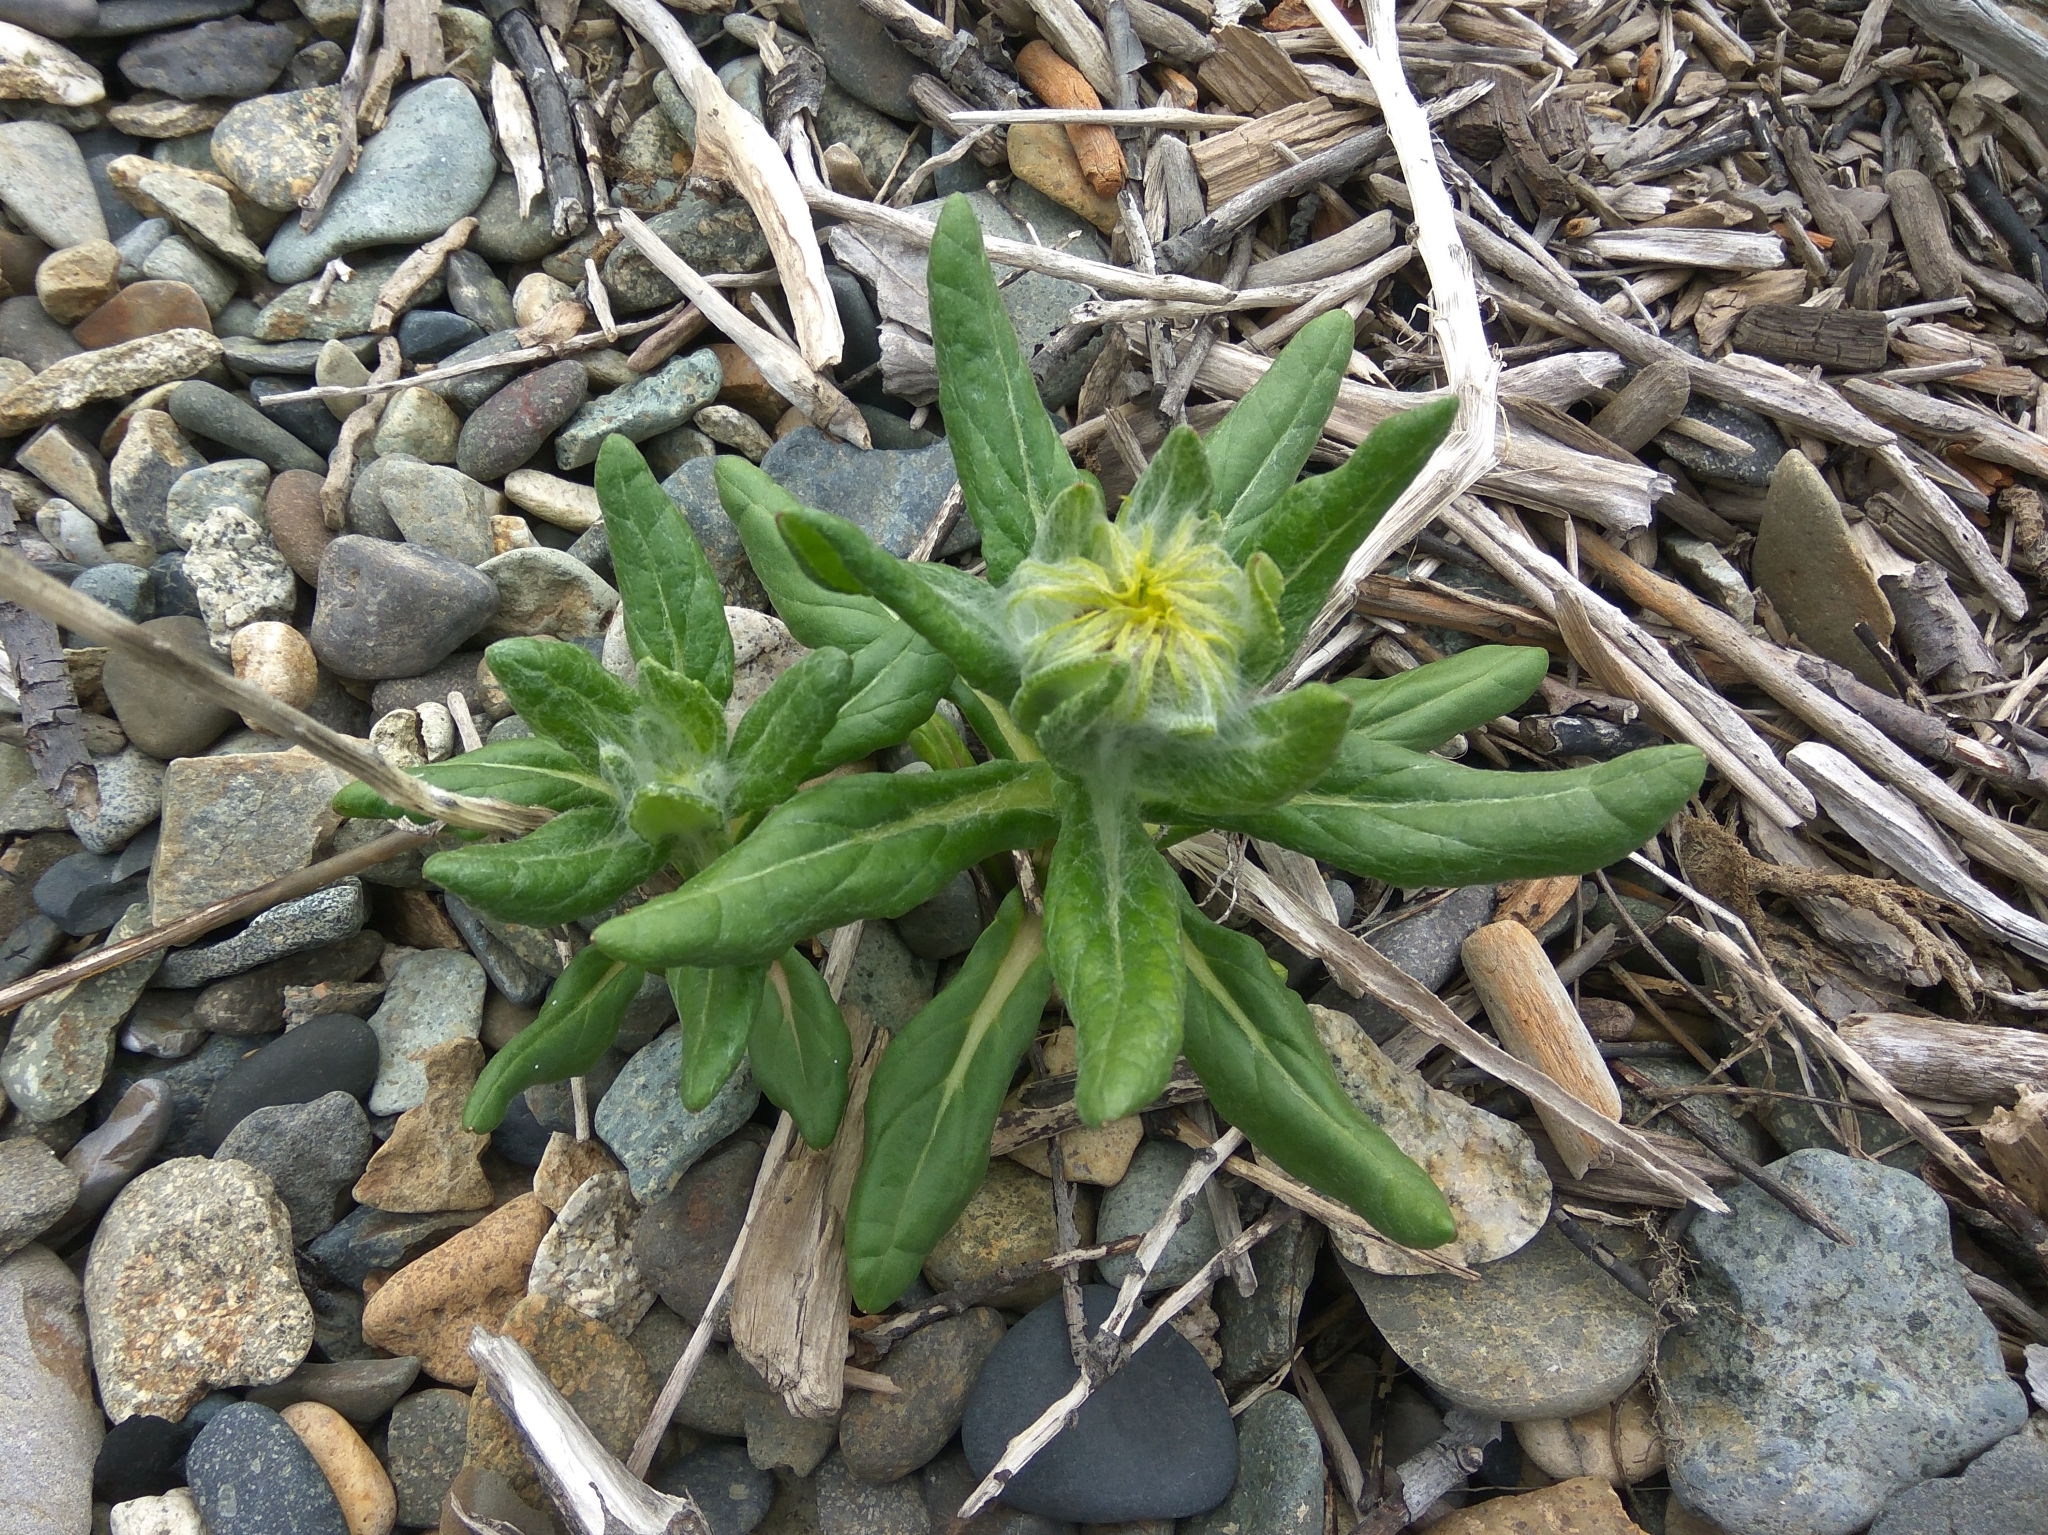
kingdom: Plantae
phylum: Tracheophyta
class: Magnoliopsida
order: Asterales
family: Asteraceae
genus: Jacobaea
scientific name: Jacobaea pseudoarnica
